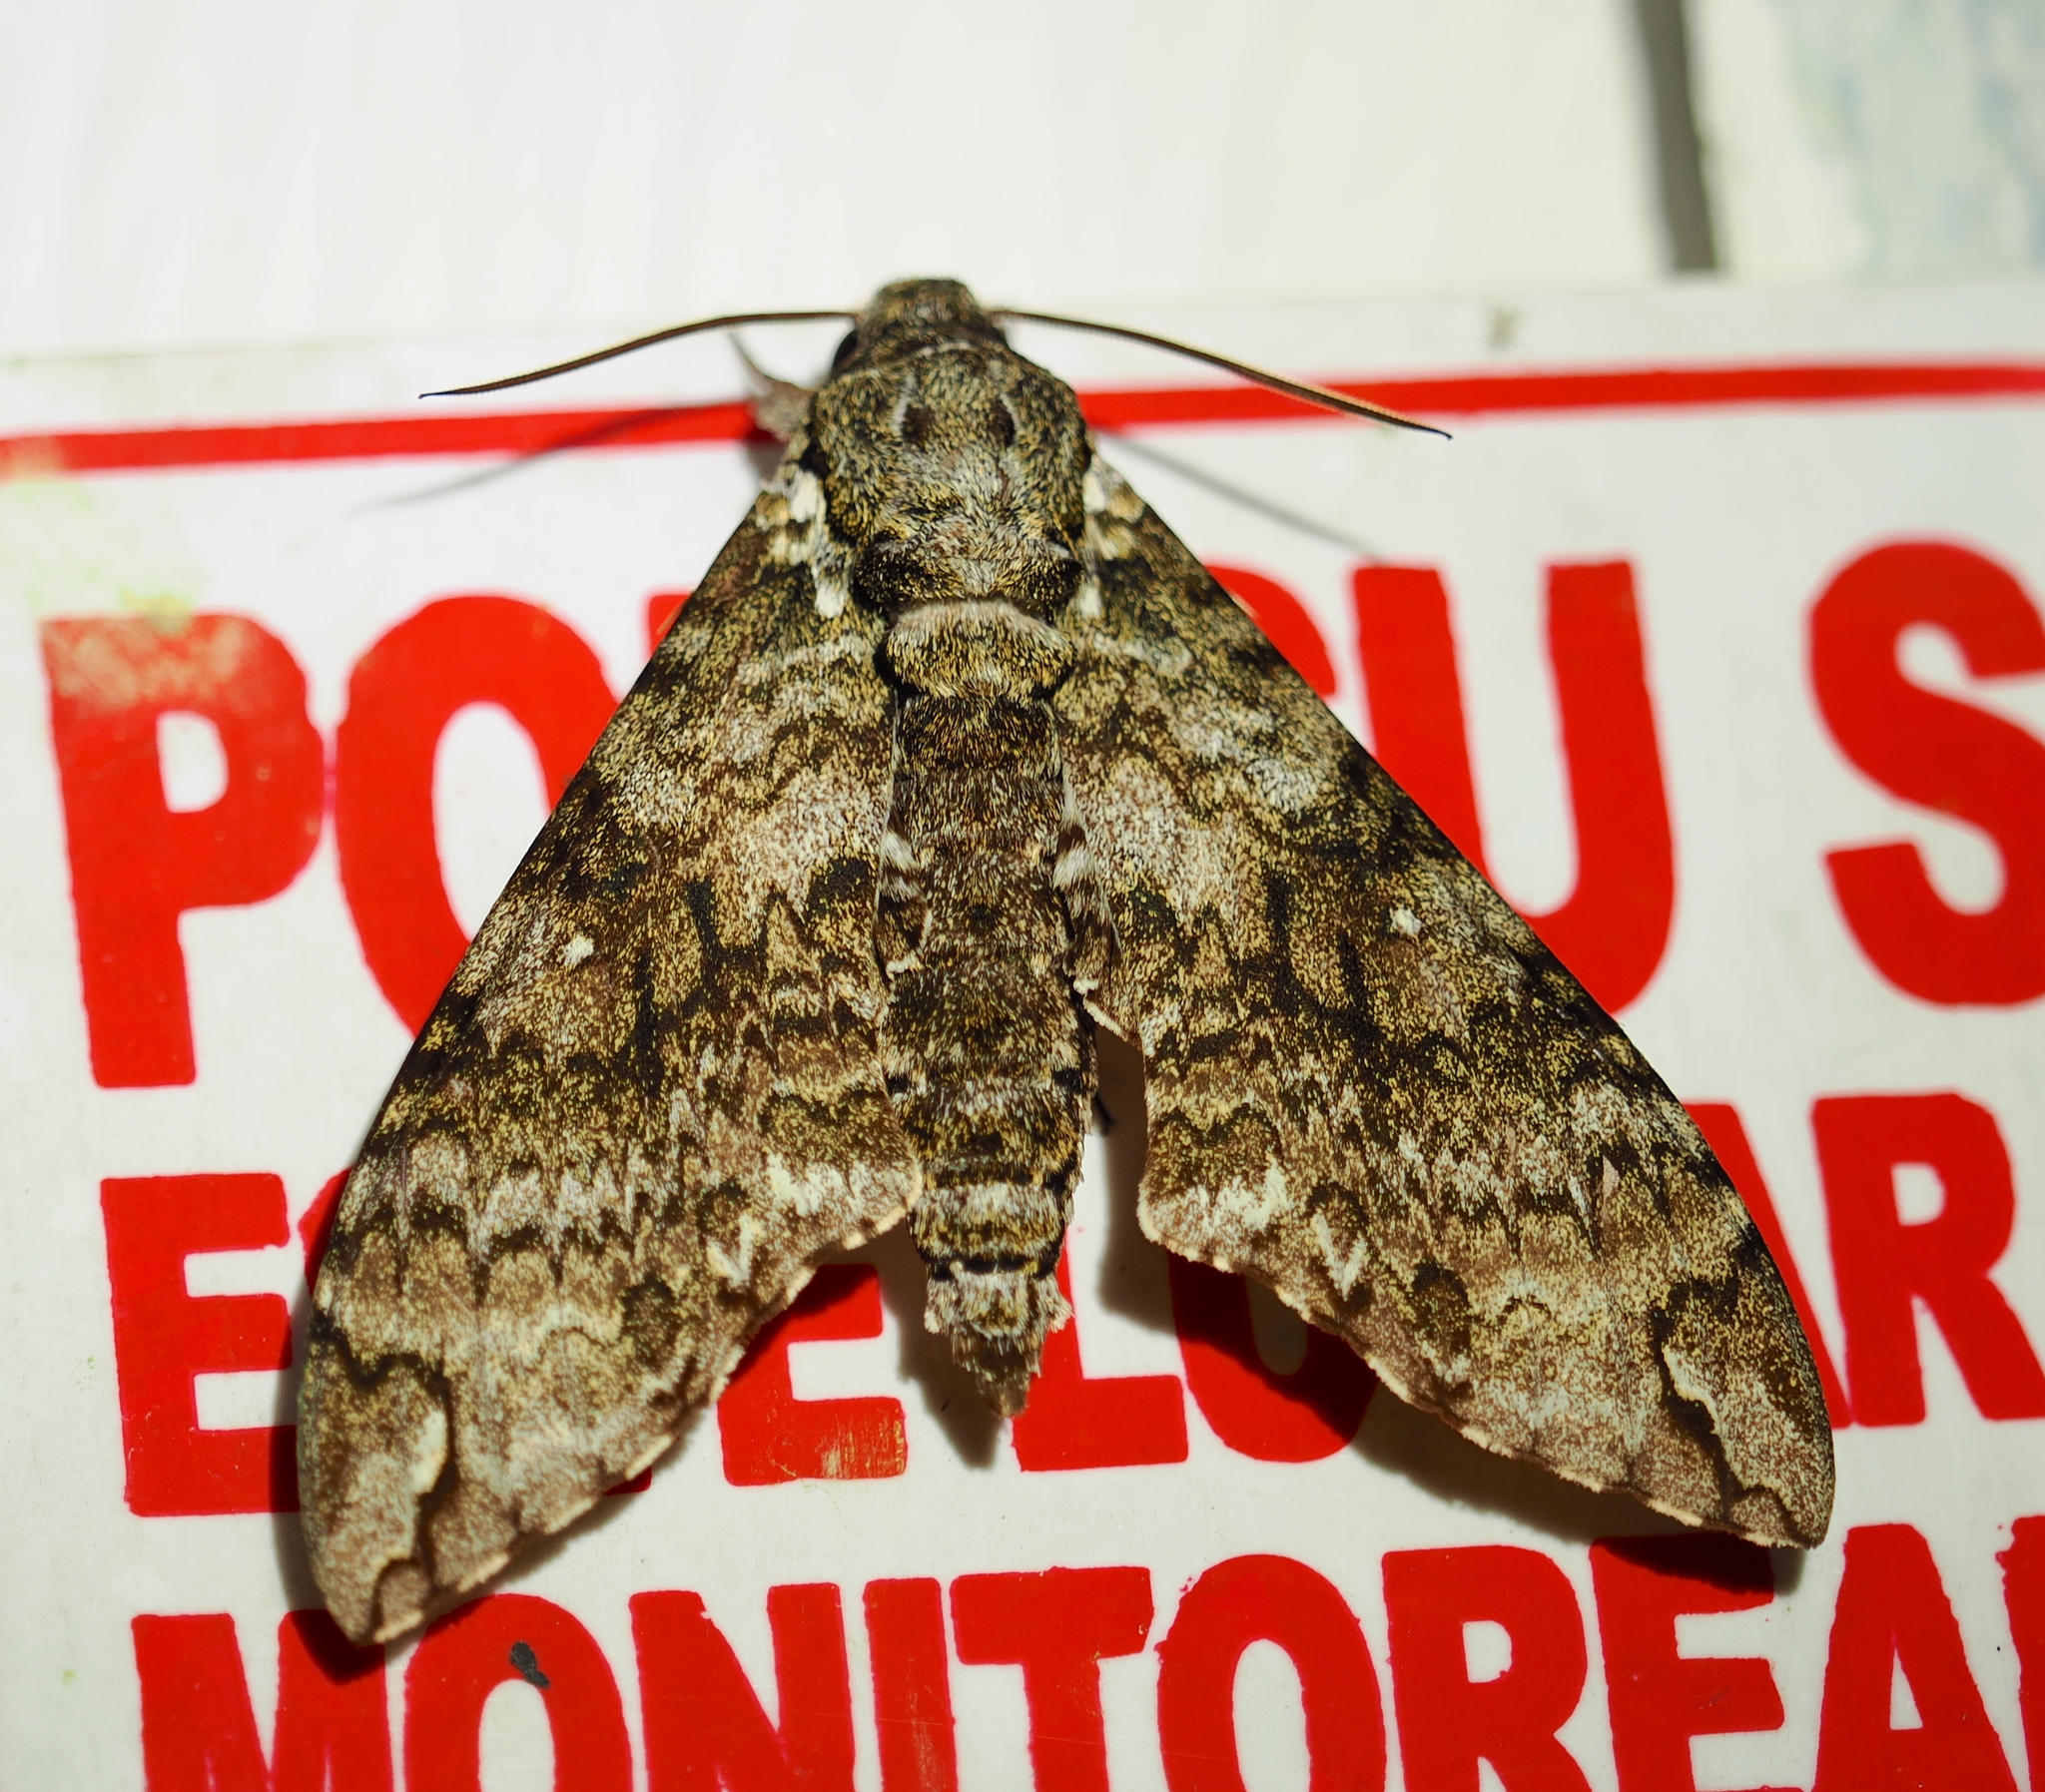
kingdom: Animalia
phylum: Arthropoda
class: Insecta
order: Lepidoptera
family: Sphingidae
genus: Manduca
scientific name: Manduca schausi
